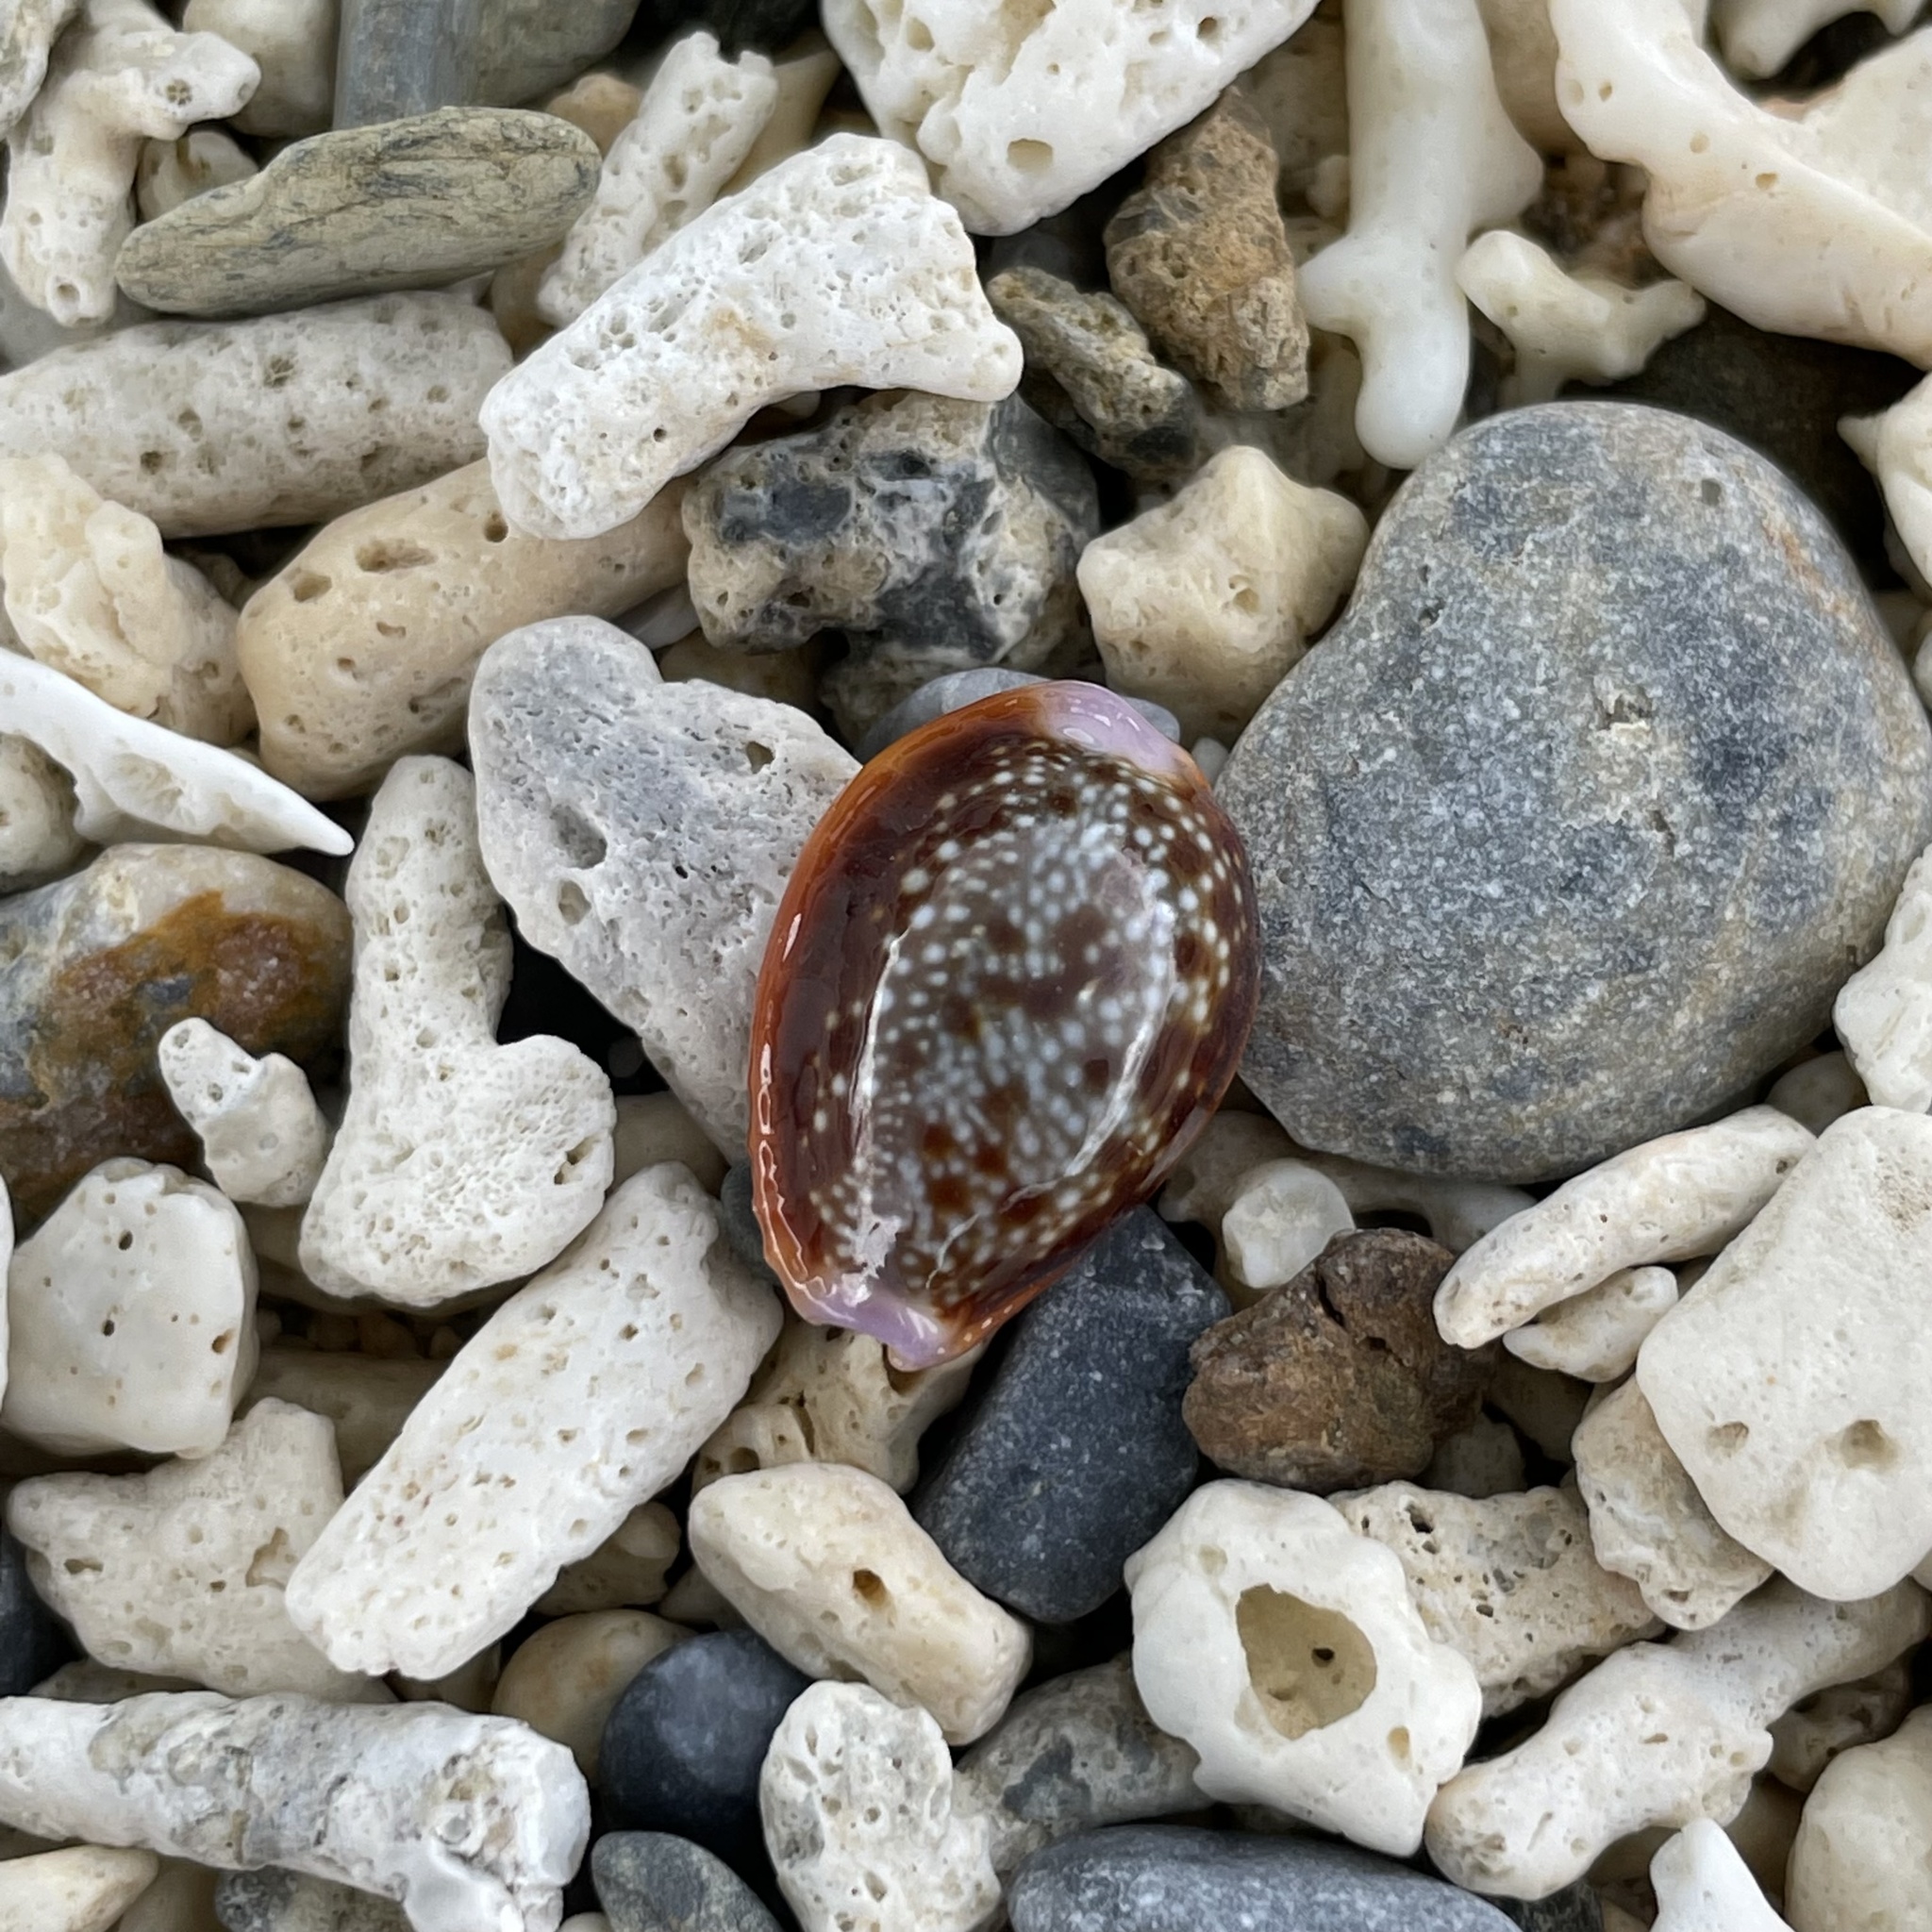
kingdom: Animalia
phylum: Mollusca
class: Gastropoda
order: Littorinimorpha
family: Cypraeidae
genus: Naria
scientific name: Naria helvola
